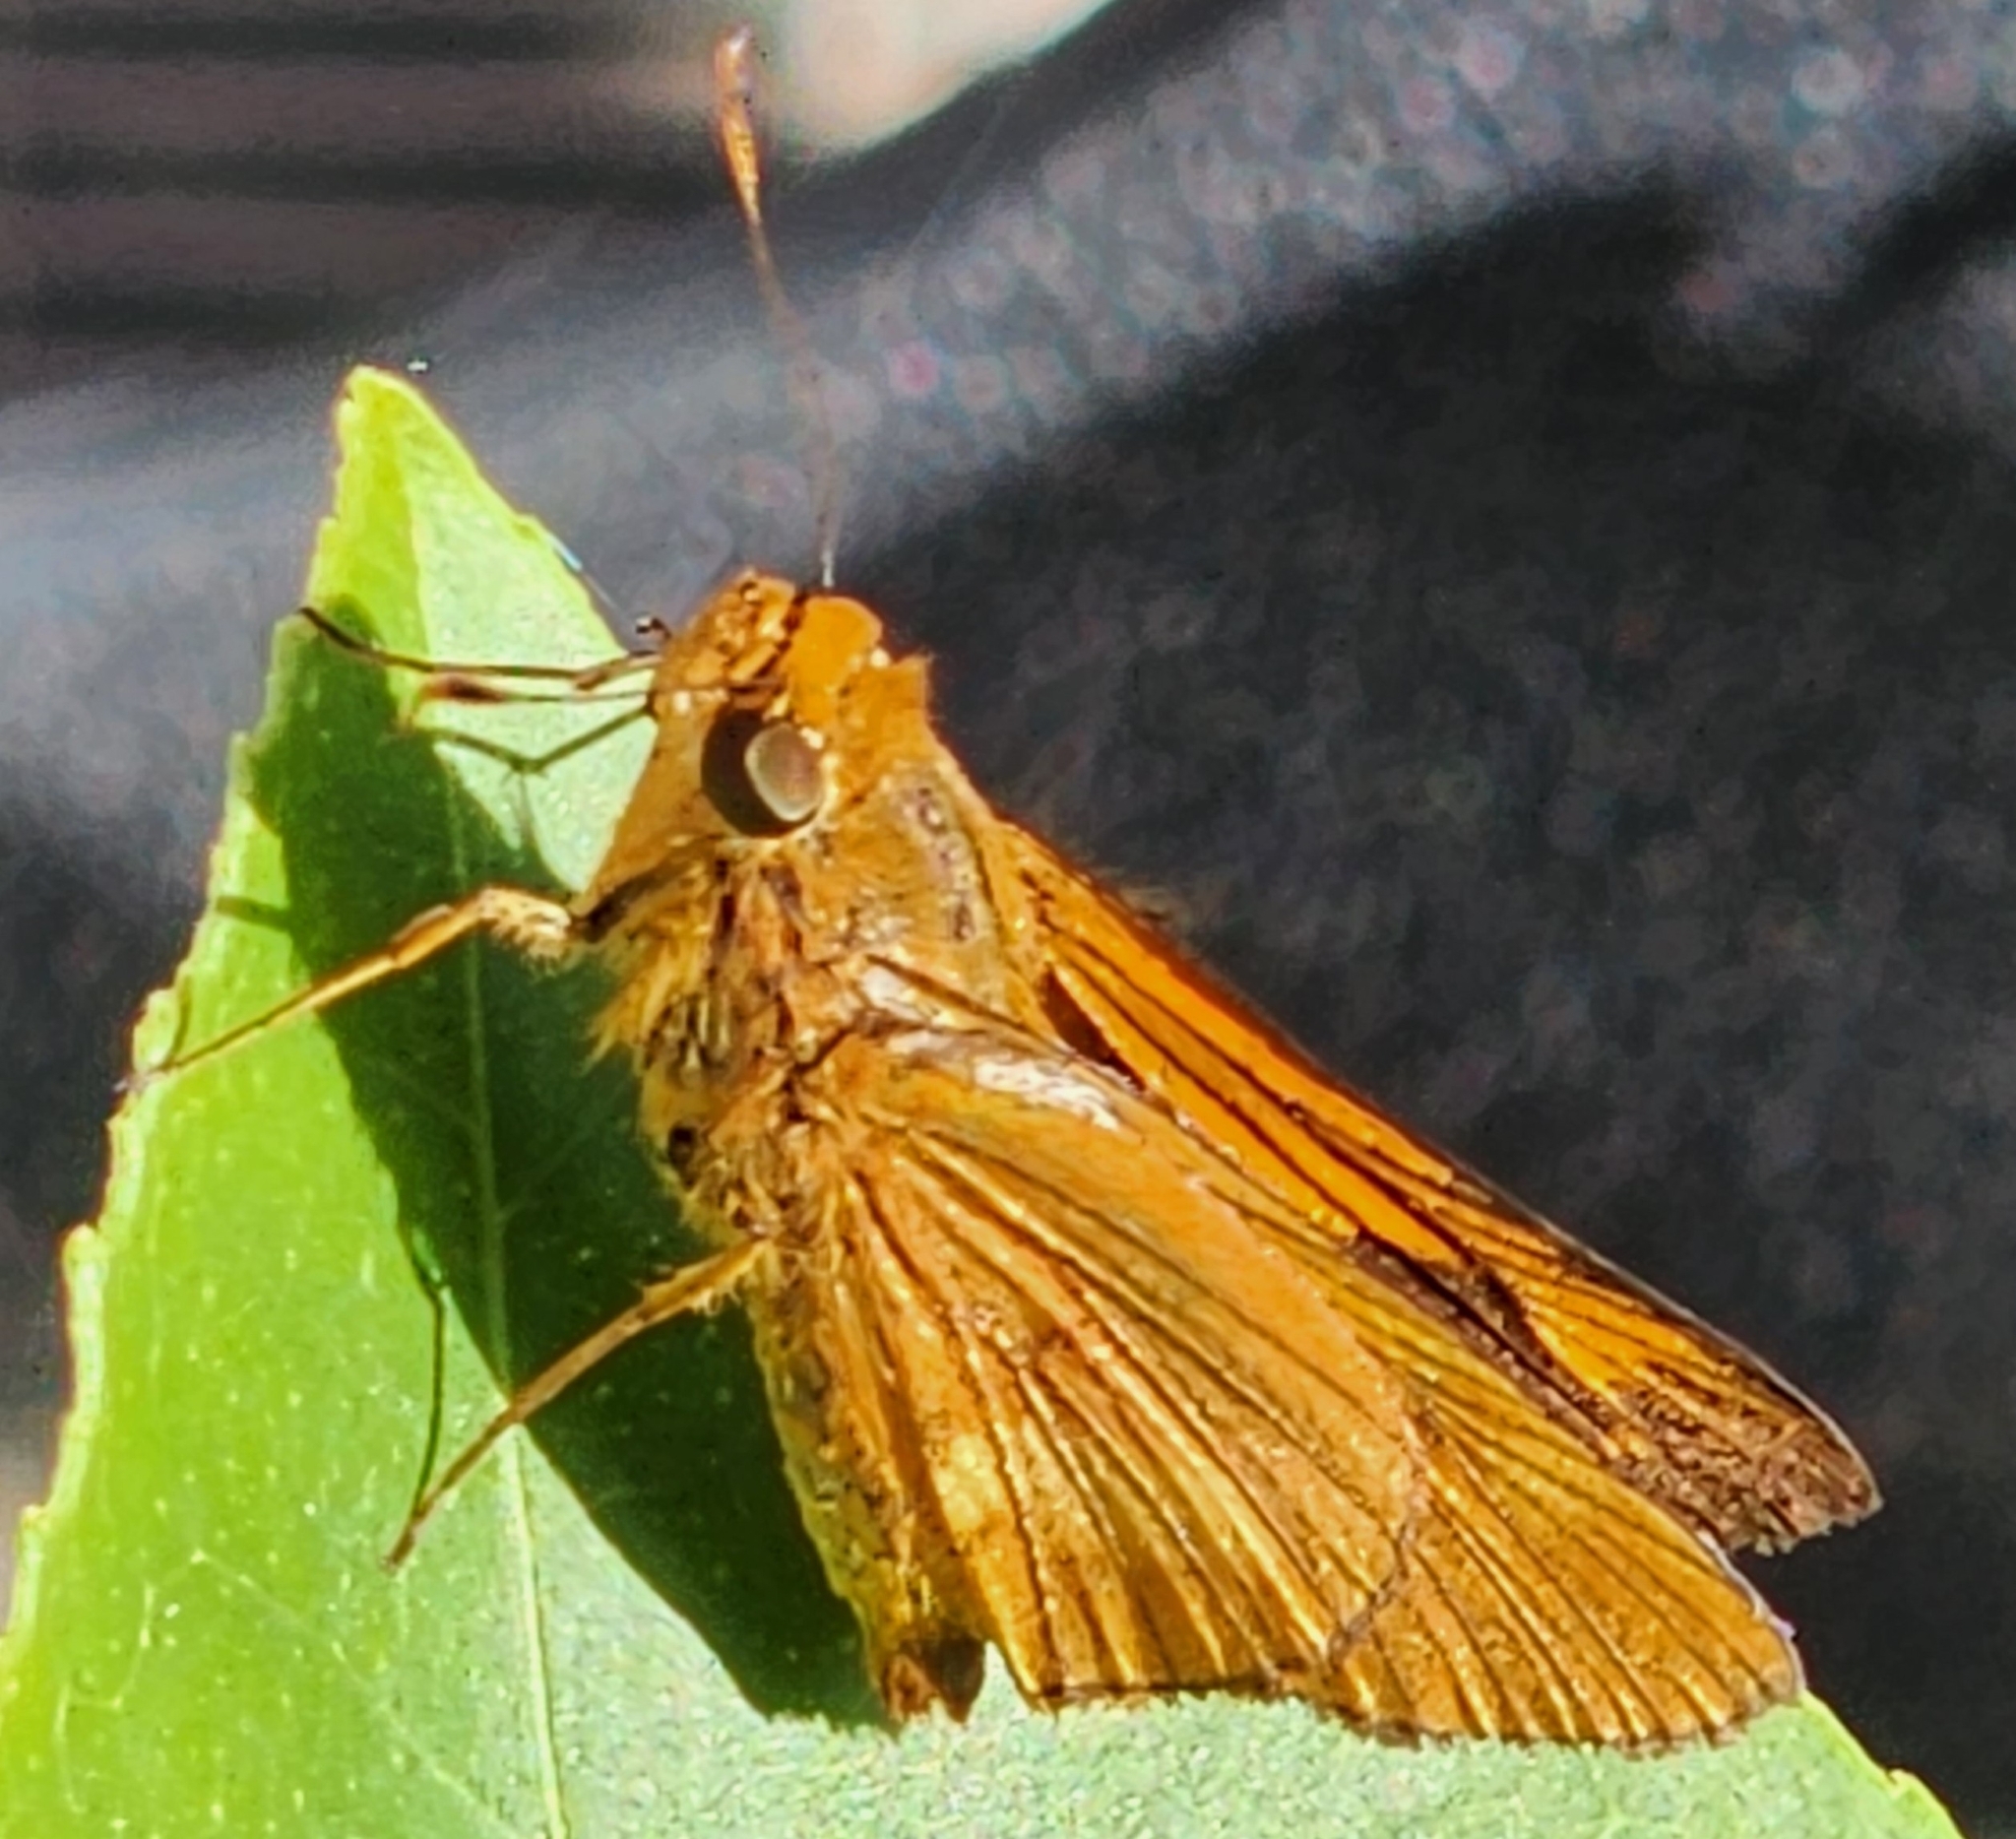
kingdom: Animalia
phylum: Arthropoda
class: Insecta
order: Lepidoptera
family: Hesperiidae
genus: Cephrenes
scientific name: Cephrenes augiades
